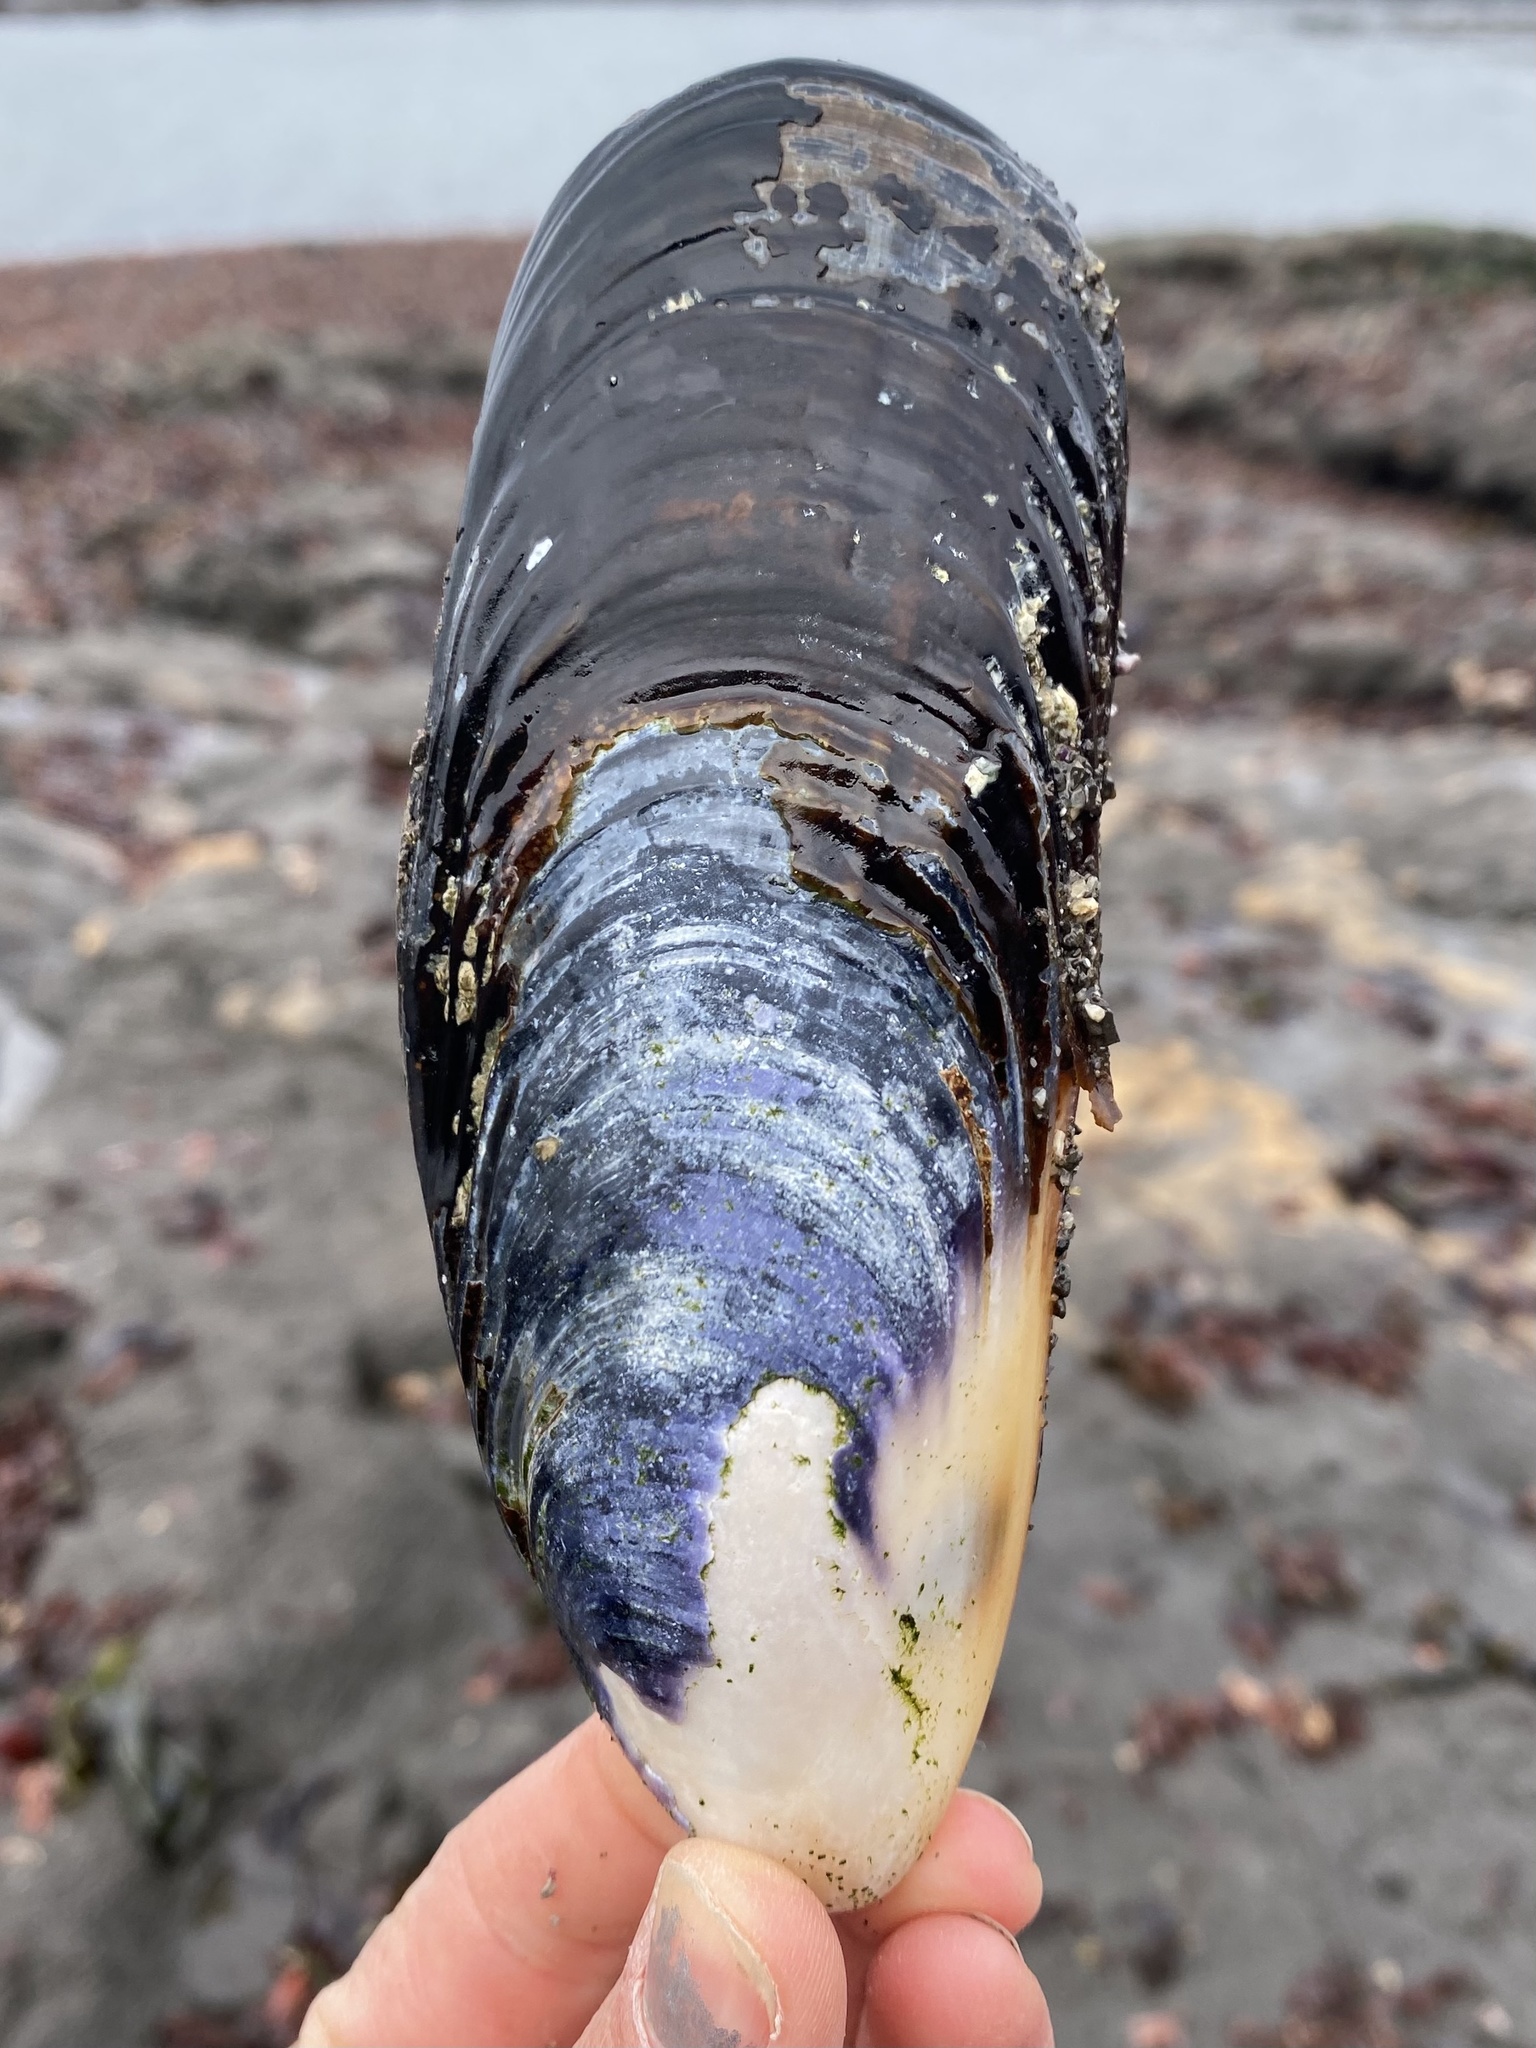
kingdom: Animalia
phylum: Mollusca
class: Bivalvia
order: Mytilida
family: Mytilidae
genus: Mytilus
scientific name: Mytilus californianus
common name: California mussel
